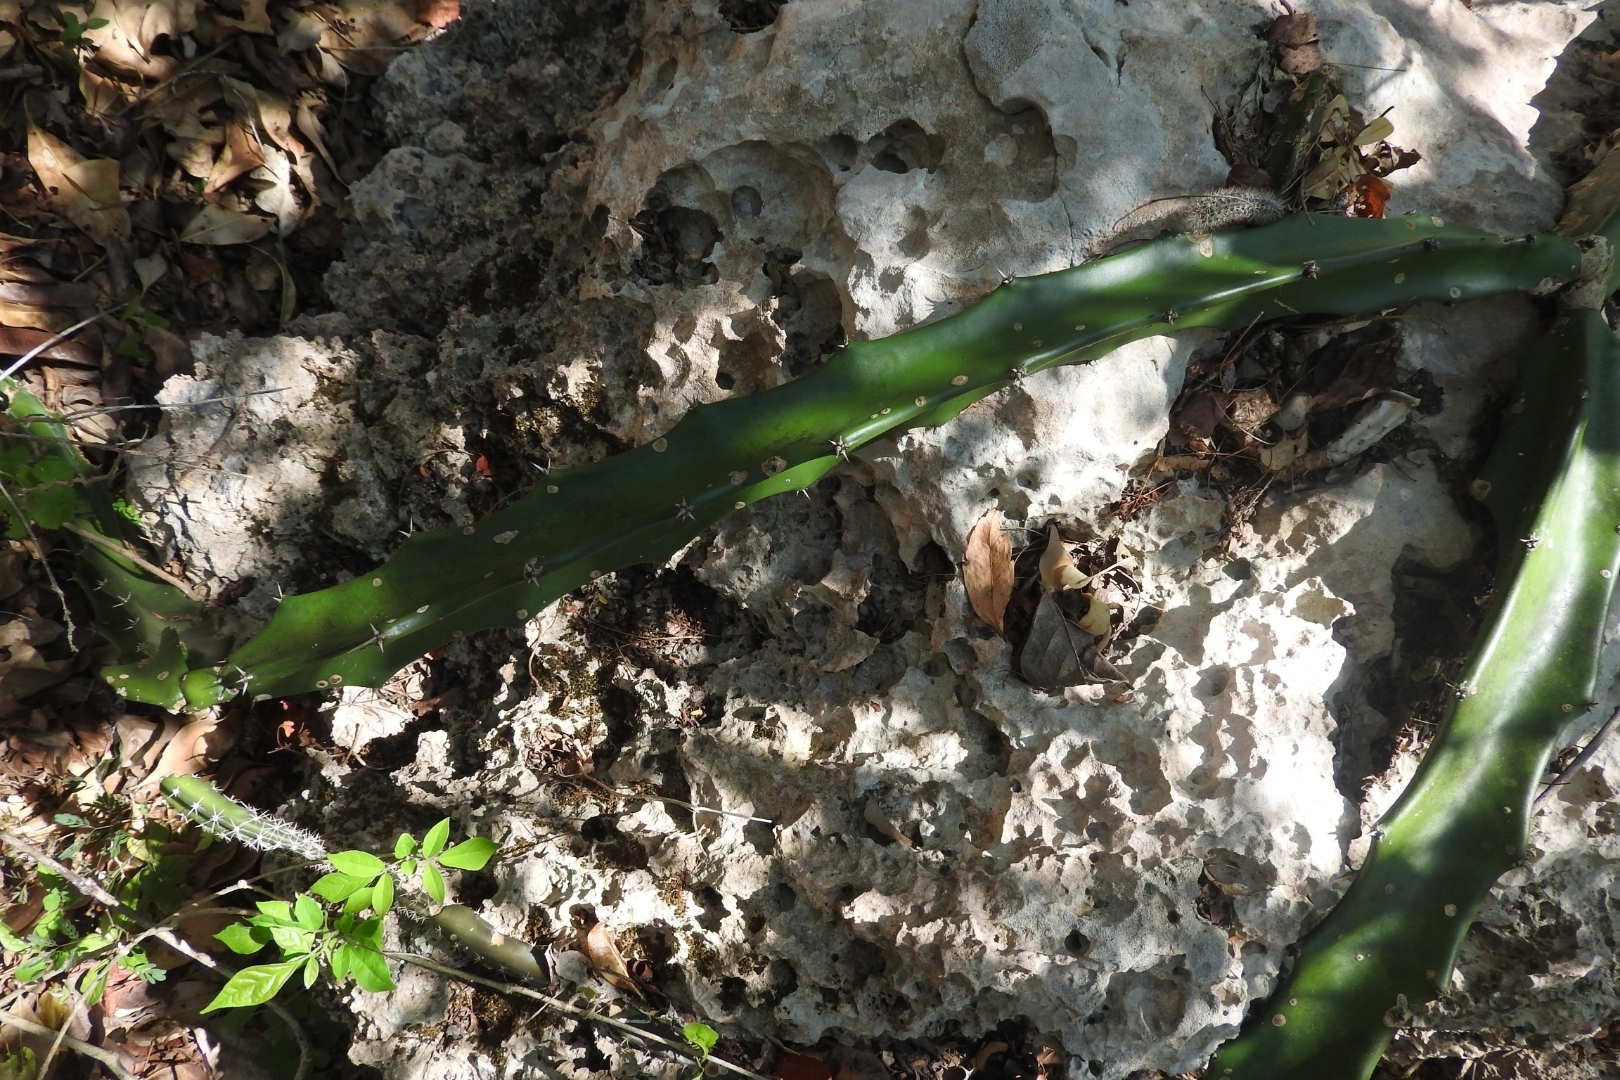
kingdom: Plantae
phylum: Tracheophyta
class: Magnoliopsida
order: Caryophyllales
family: Cactaceae
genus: Acanthocereus
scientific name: Acanthocereus tetragonus
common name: Triangle cactus
